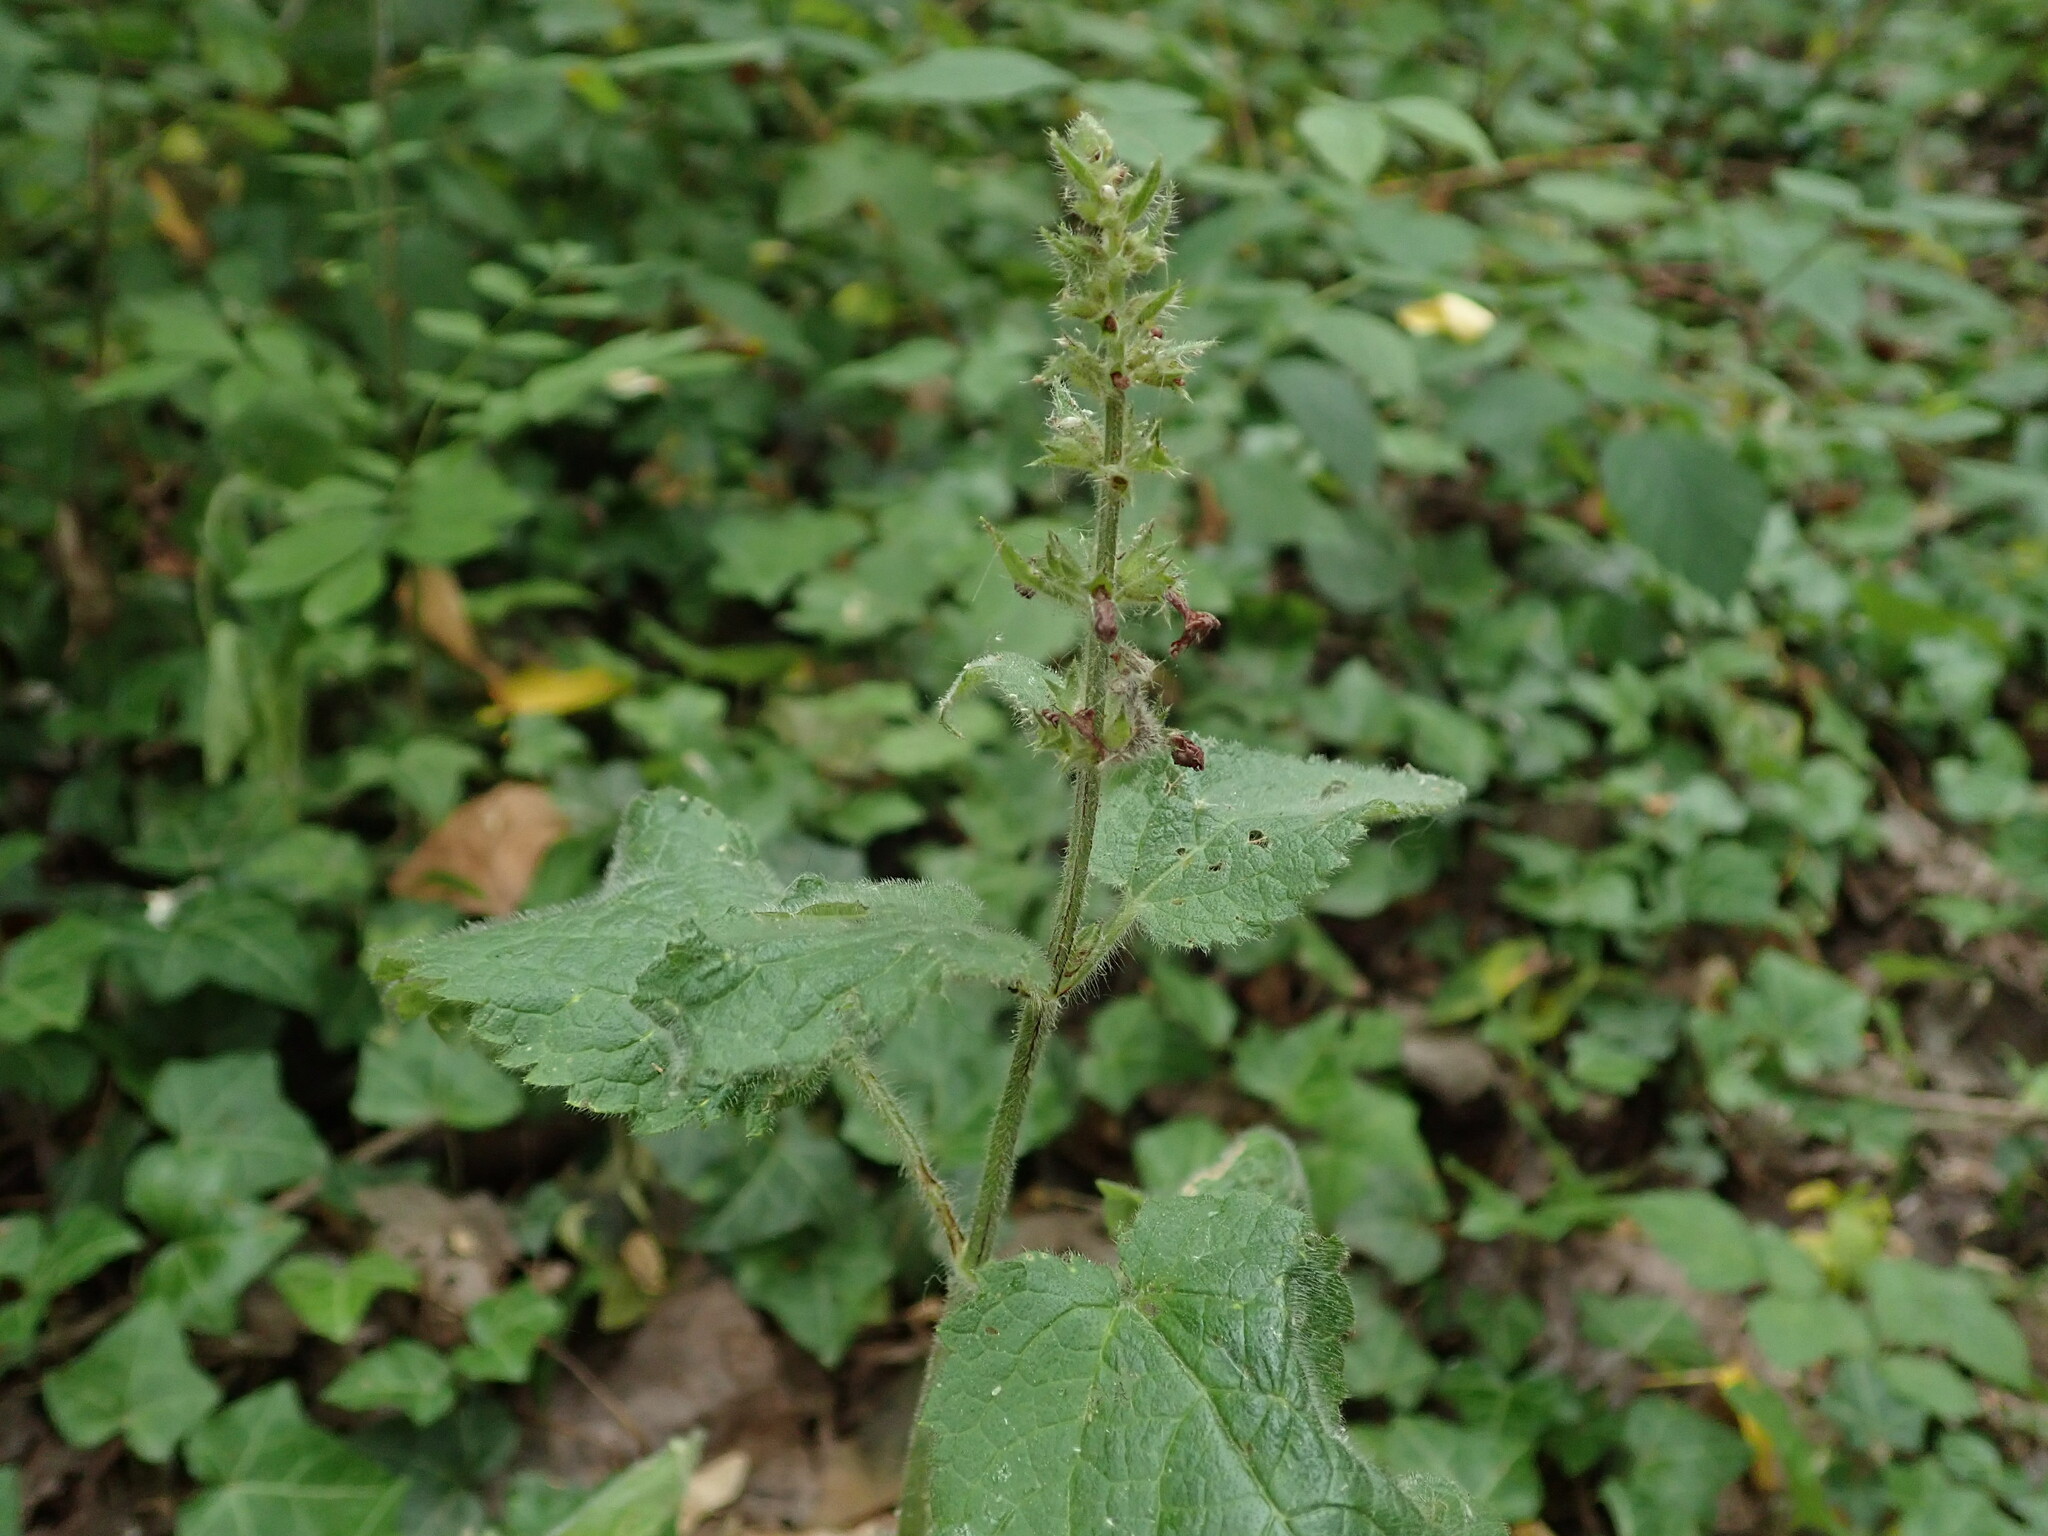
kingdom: Plantae
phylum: Tracheophyta
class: Magnoliopsida
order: Lamiales
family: Lamiaceae
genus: Stachys
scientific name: Stachys sylvatica
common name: Hedge woundwort
